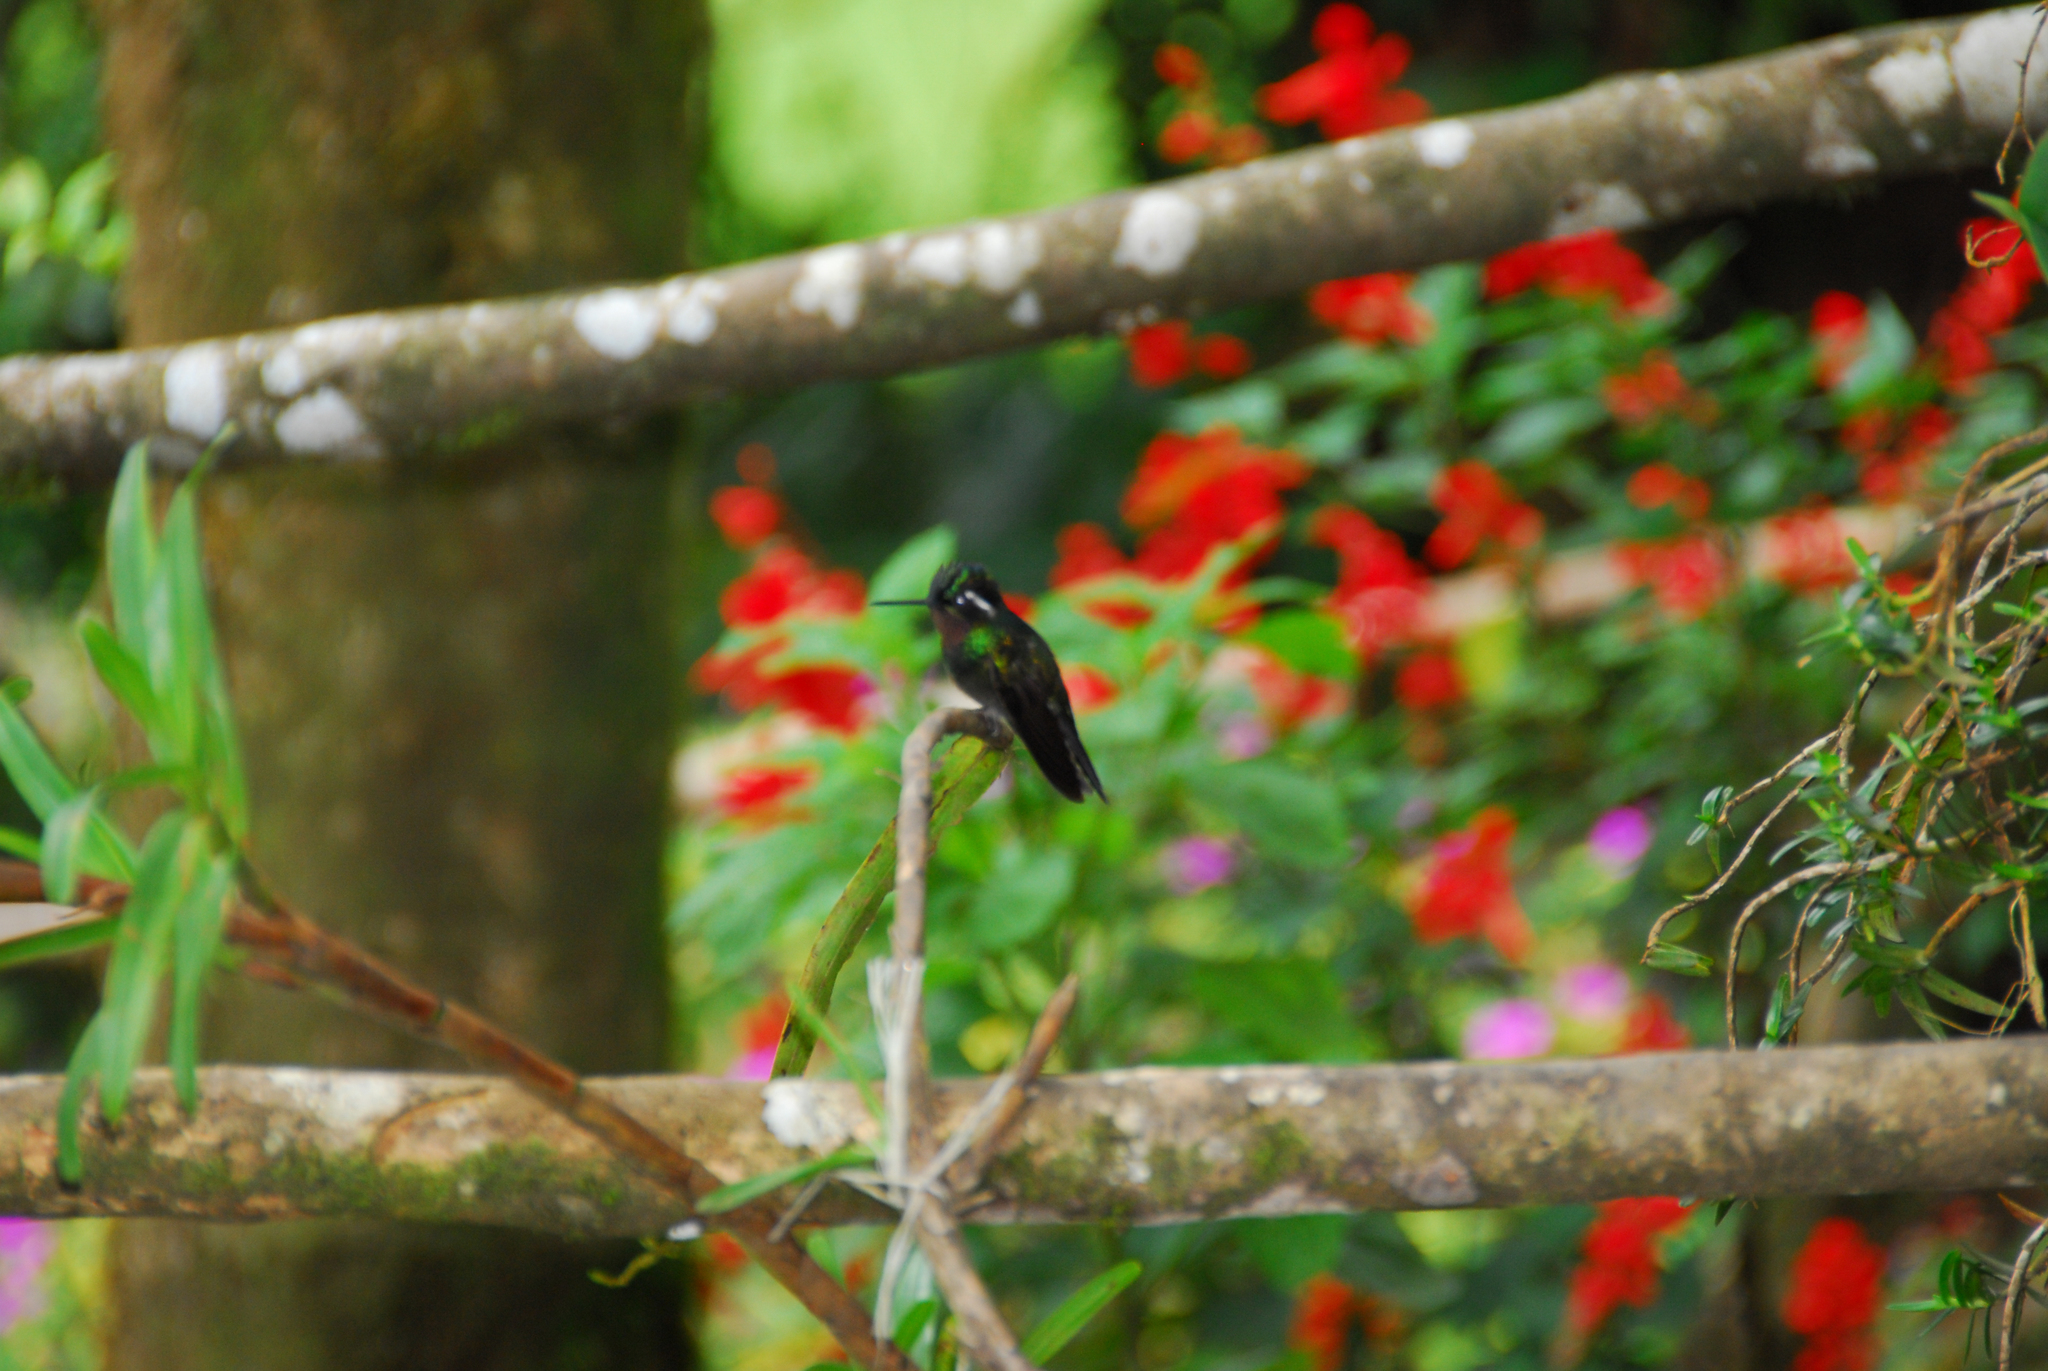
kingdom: Animalia
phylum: Chordata
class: Aves
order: Apodiformes
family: Trochilidae
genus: Lampornis
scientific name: Lampornis calolaemus
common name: Purple-throated mountain-gem
